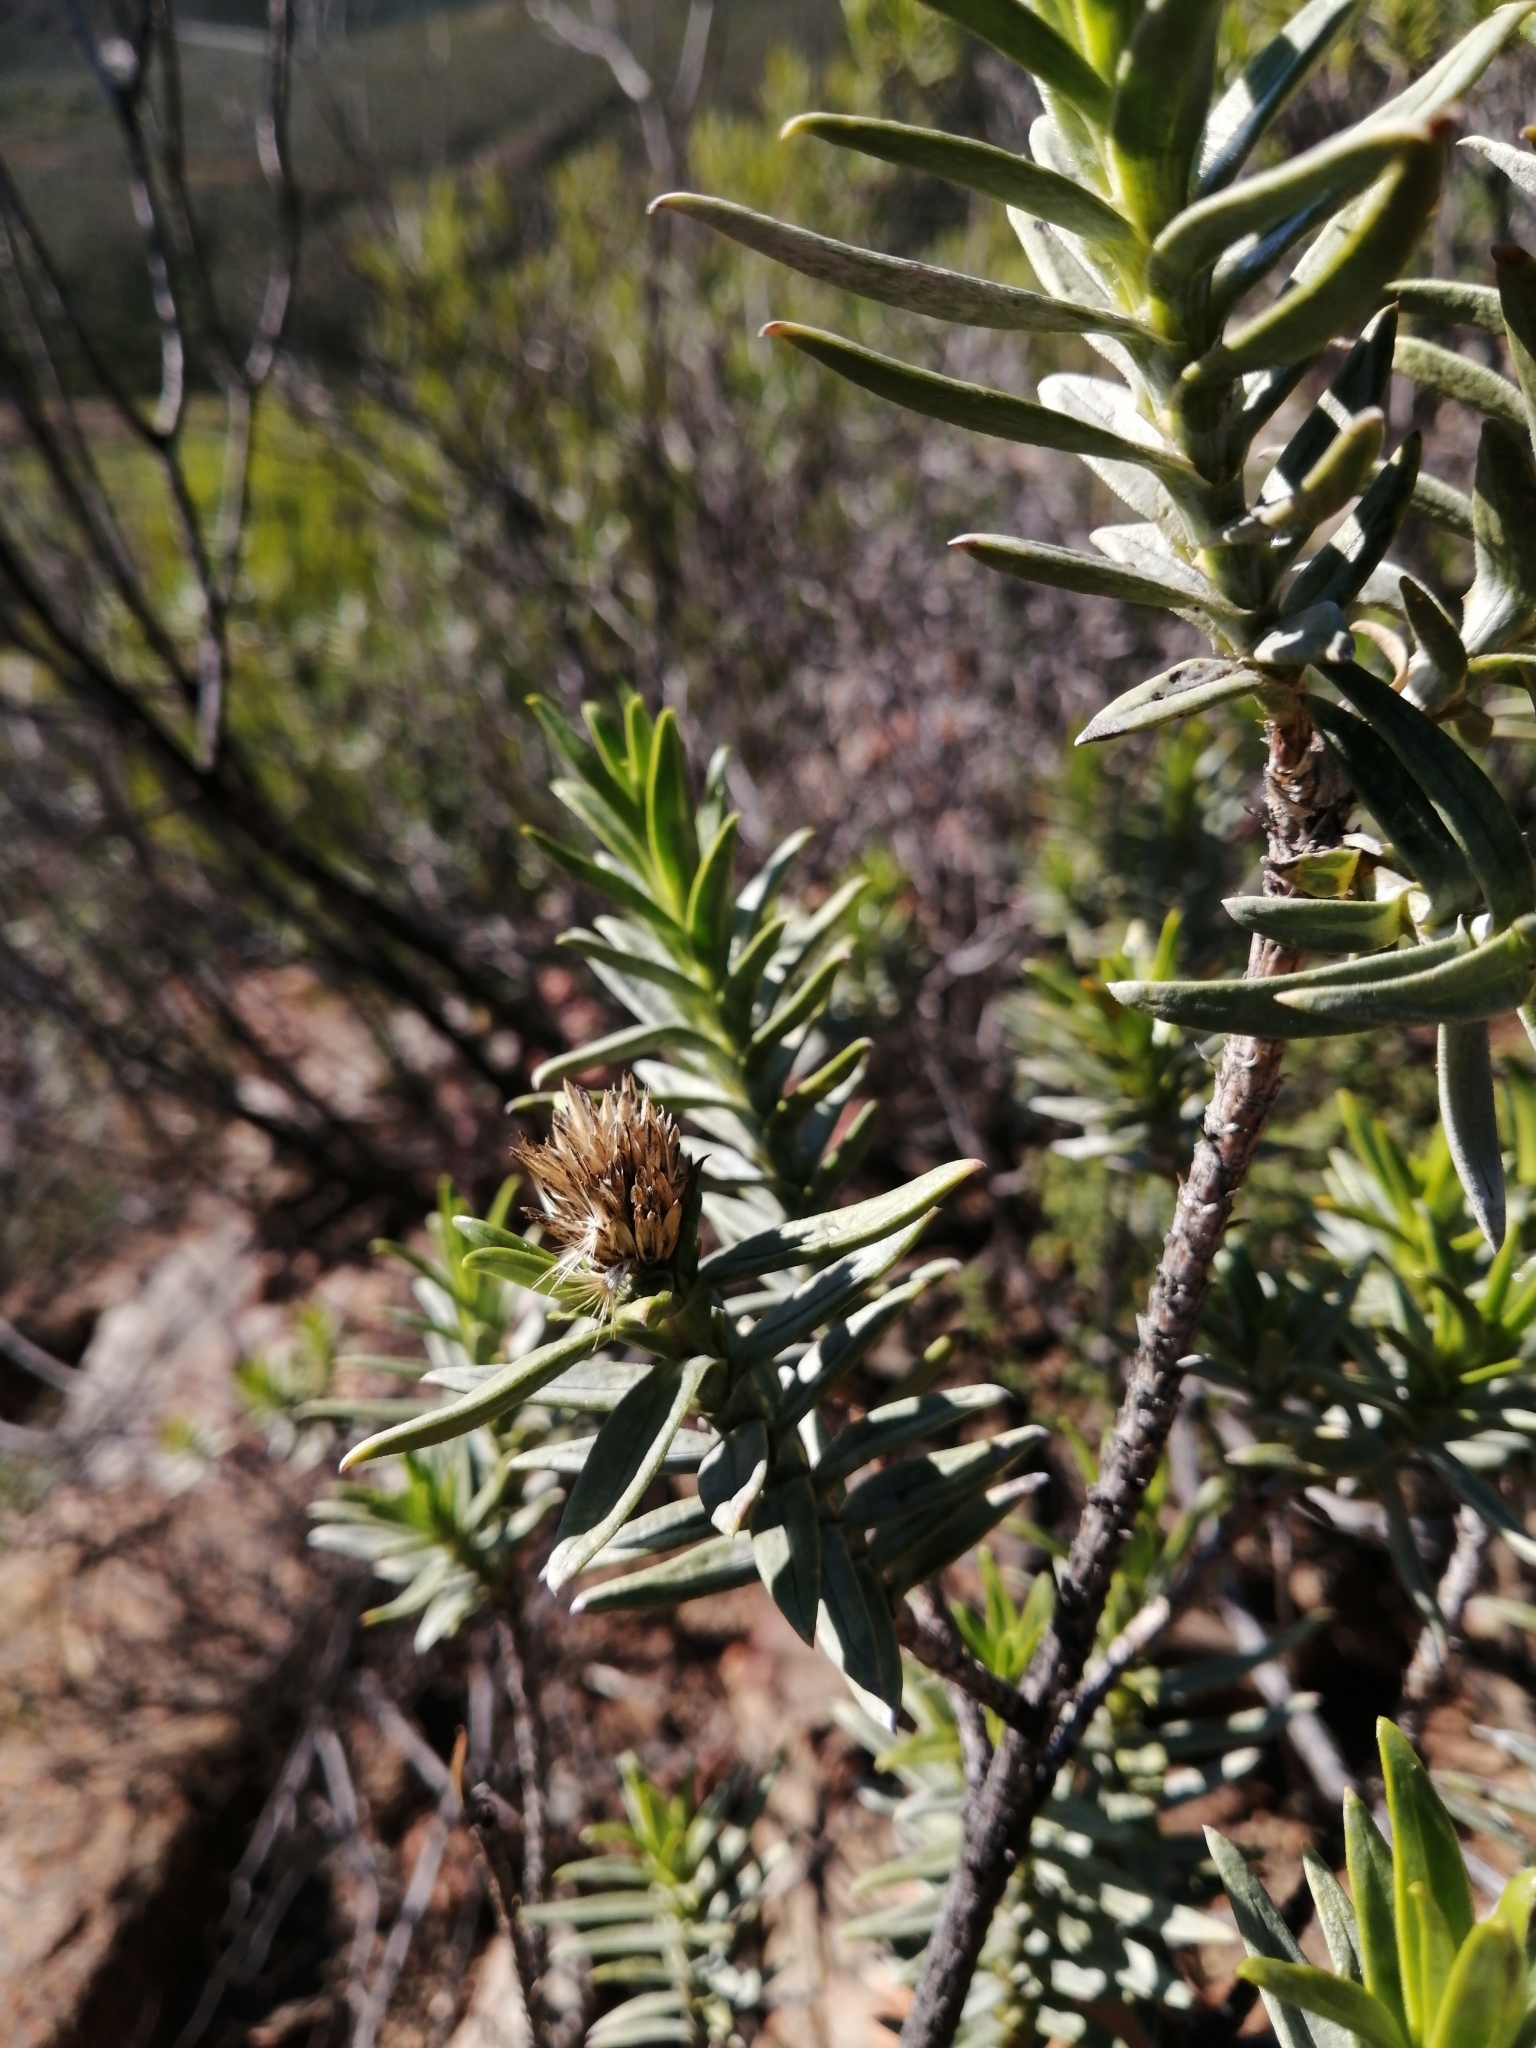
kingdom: Plantae
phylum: Tracheophyta
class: Magnoliopsida
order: Asterales
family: Asteraceae
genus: Pteronia
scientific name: Pteronia fasciculata
